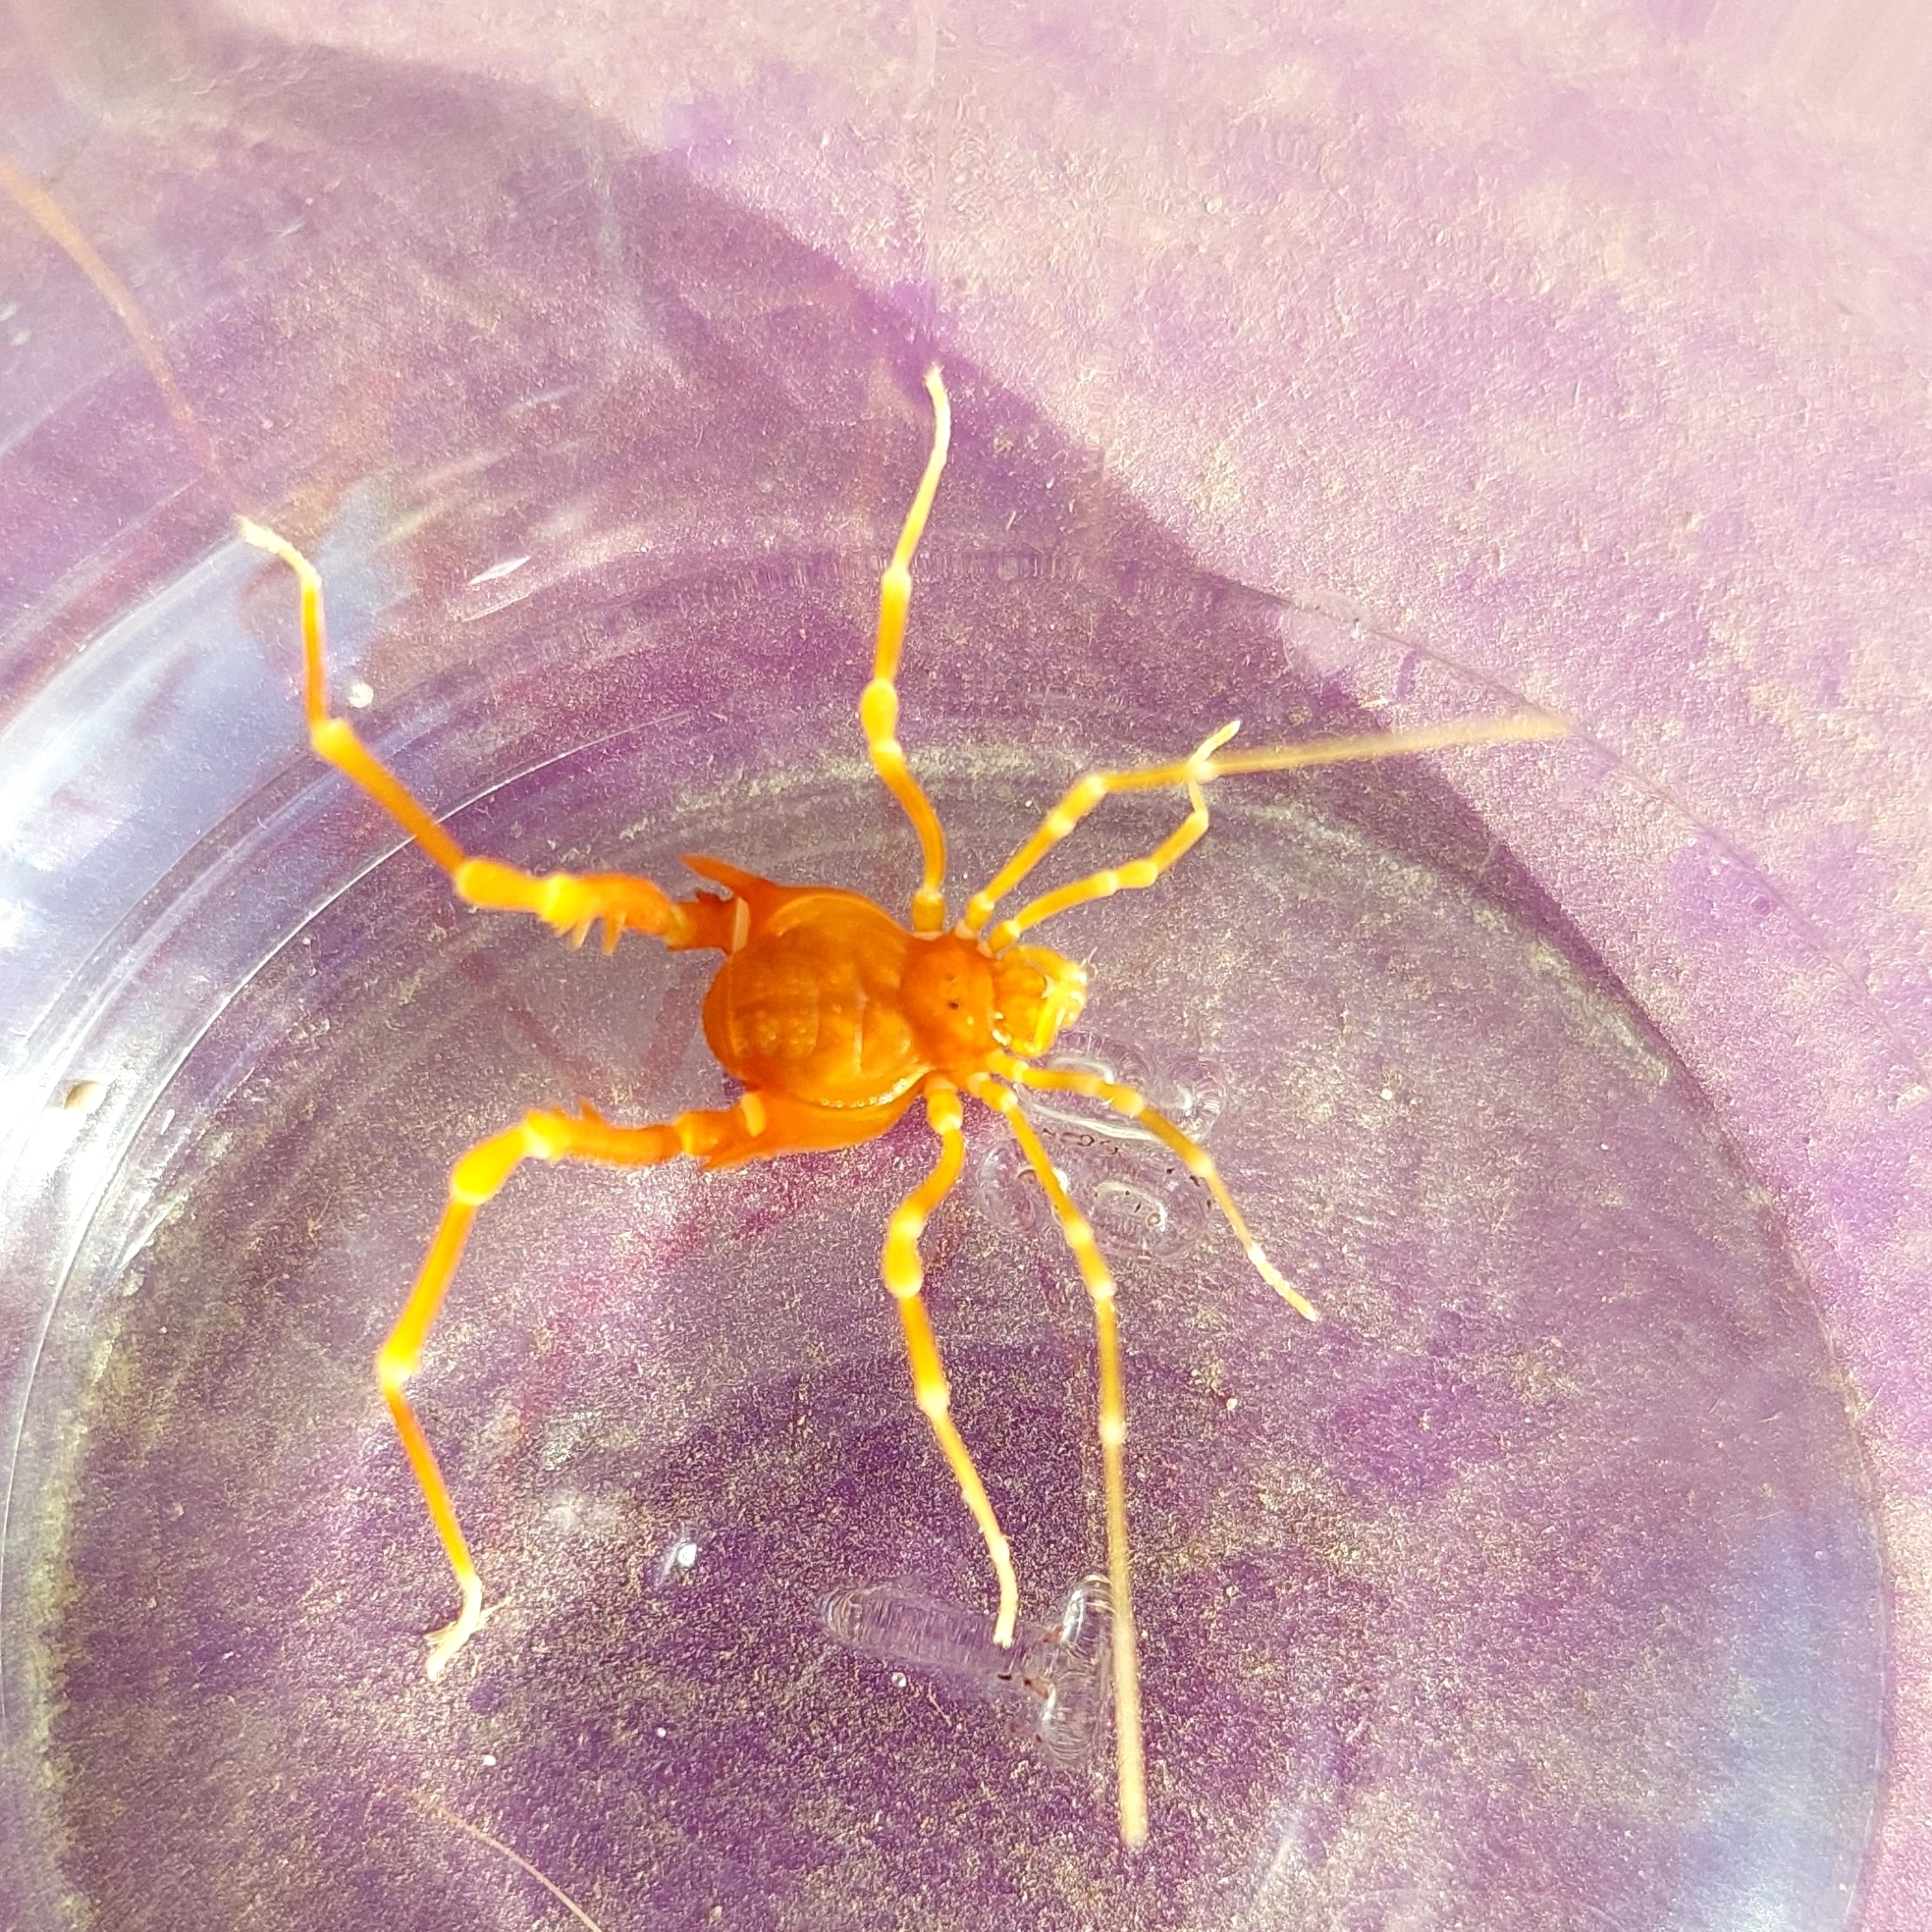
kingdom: Animalia
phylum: Arthropoda
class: Arachnida
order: Opiliones
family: Gonyleptidae
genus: Neopucroliella
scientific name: Neopucroliella mesembrina
